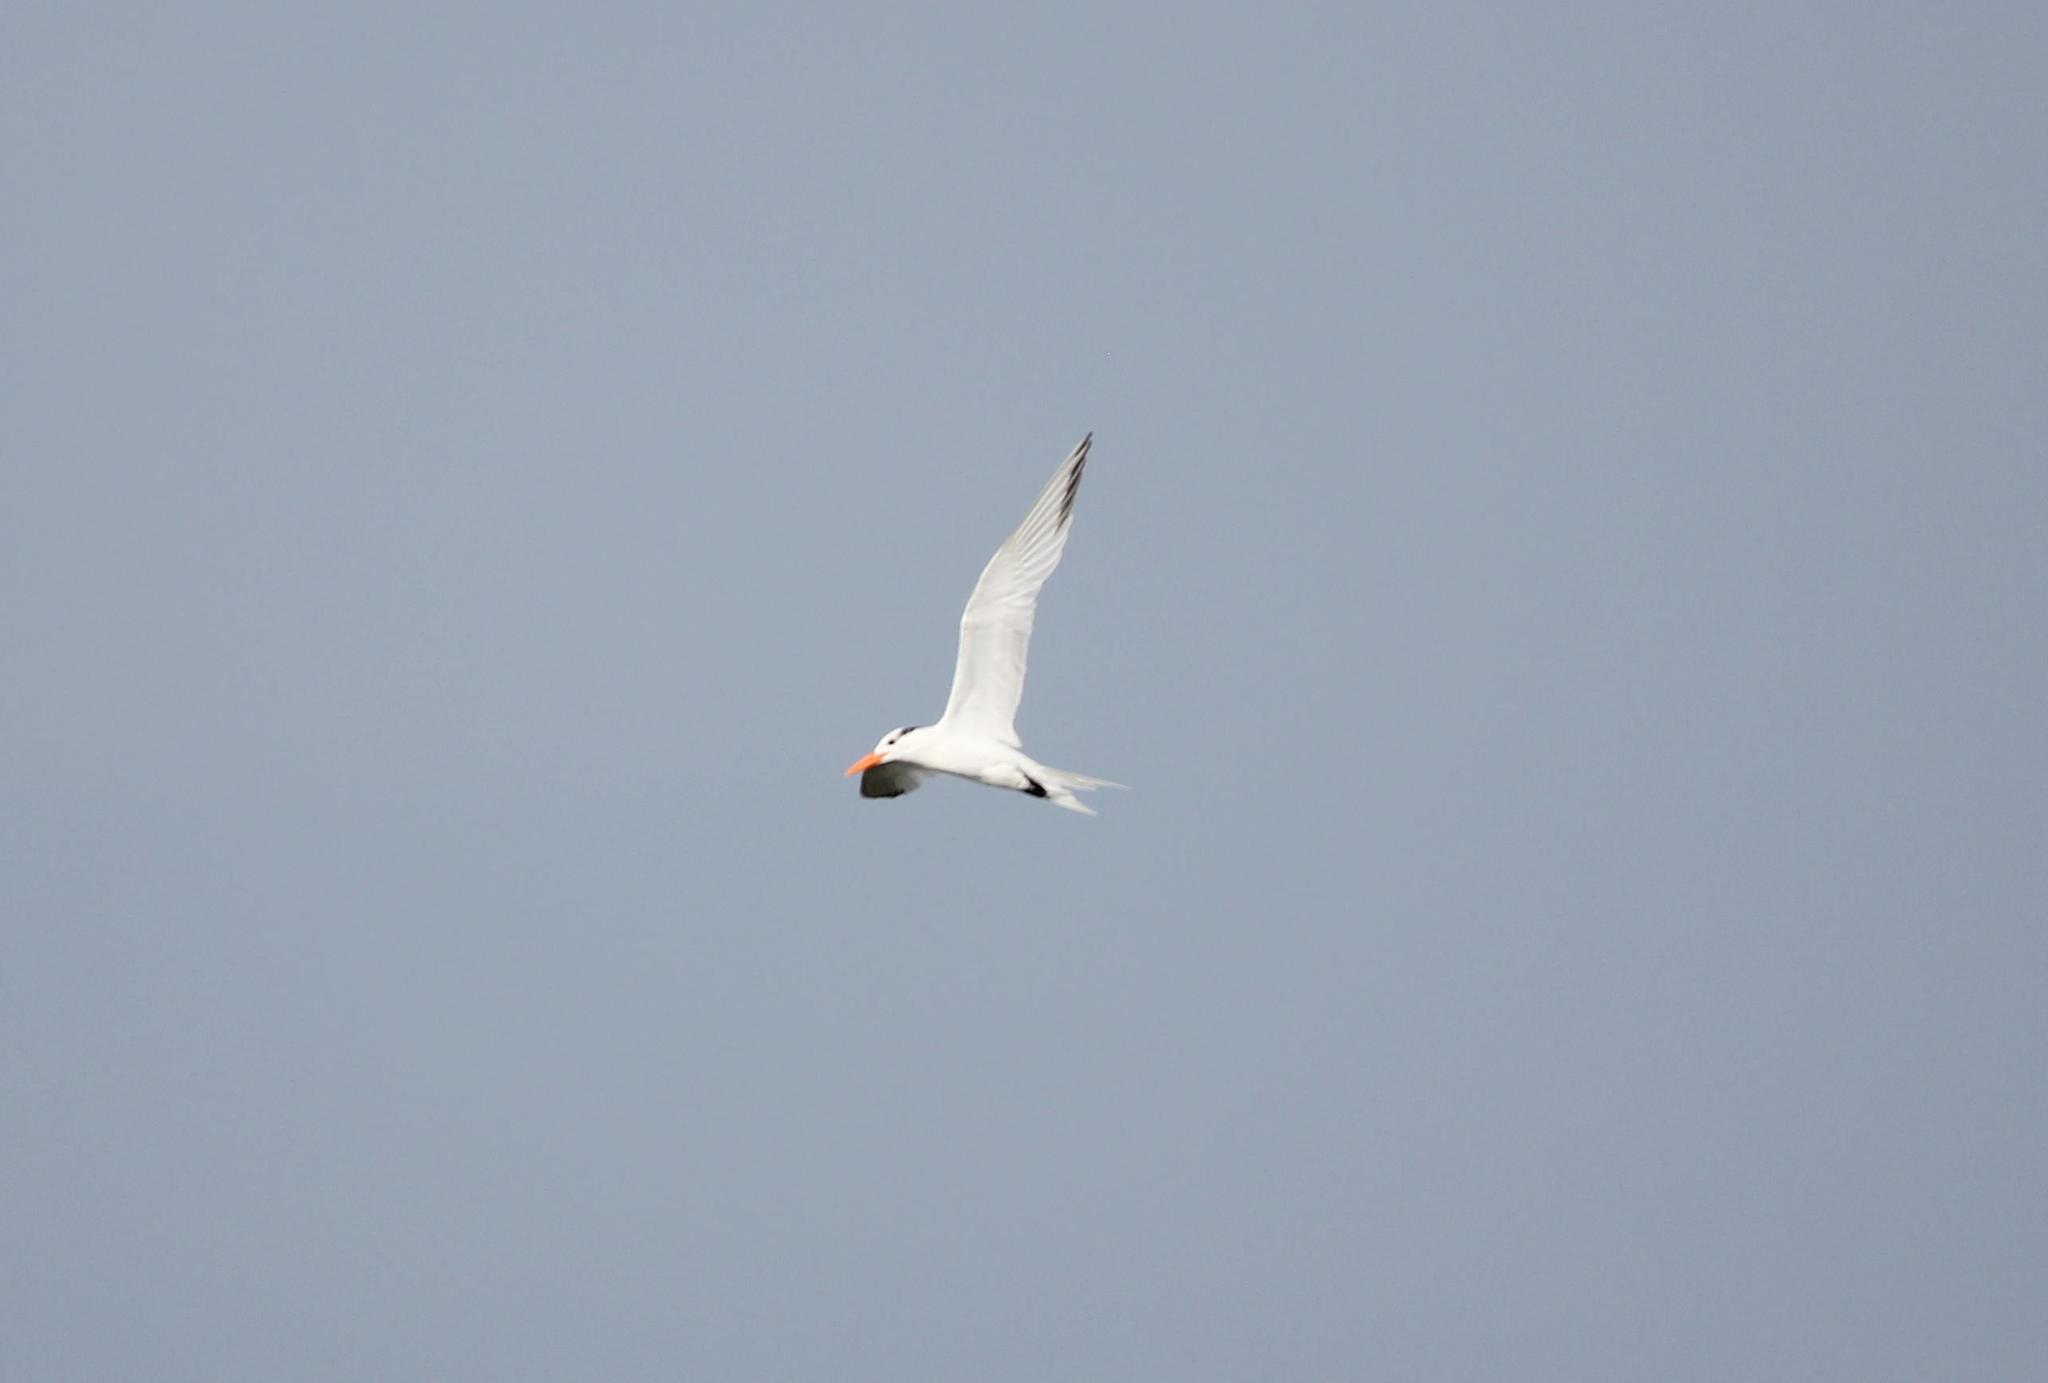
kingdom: Animalia
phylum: Chordata
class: Aves
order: Charadriiformes
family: Laridae
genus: Thalasseus
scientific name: Thalasseus maximus
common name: Royal tern
